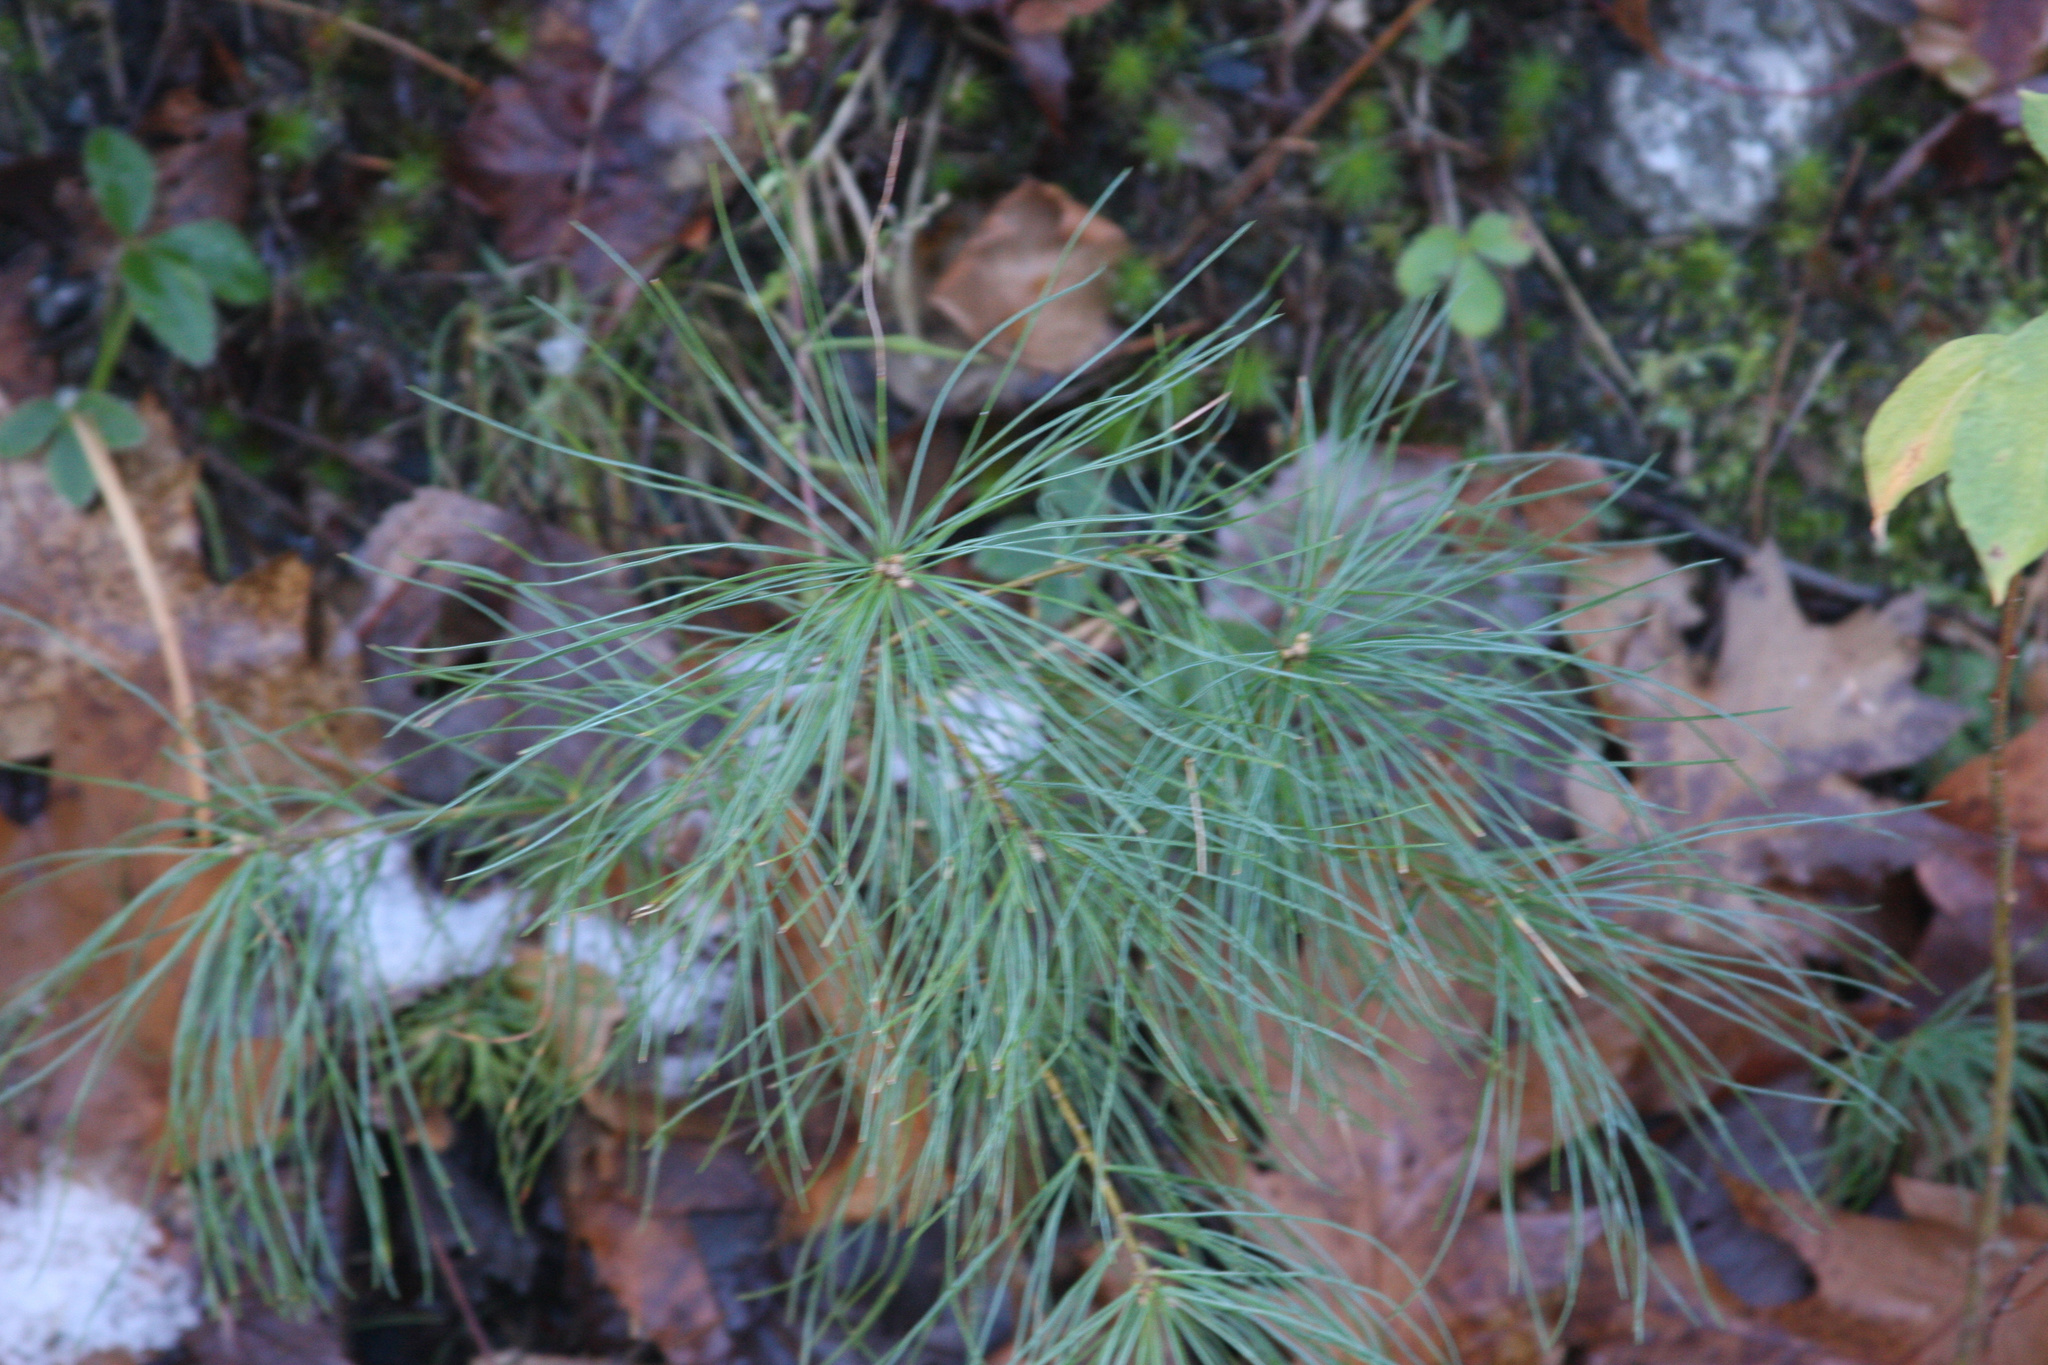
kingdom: Plantae
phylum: Tracheophyta
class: Pinopsida
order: Pinales
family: Pinaceae
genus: Pinus
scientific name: Pinus strobus
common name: Weymouth pine
